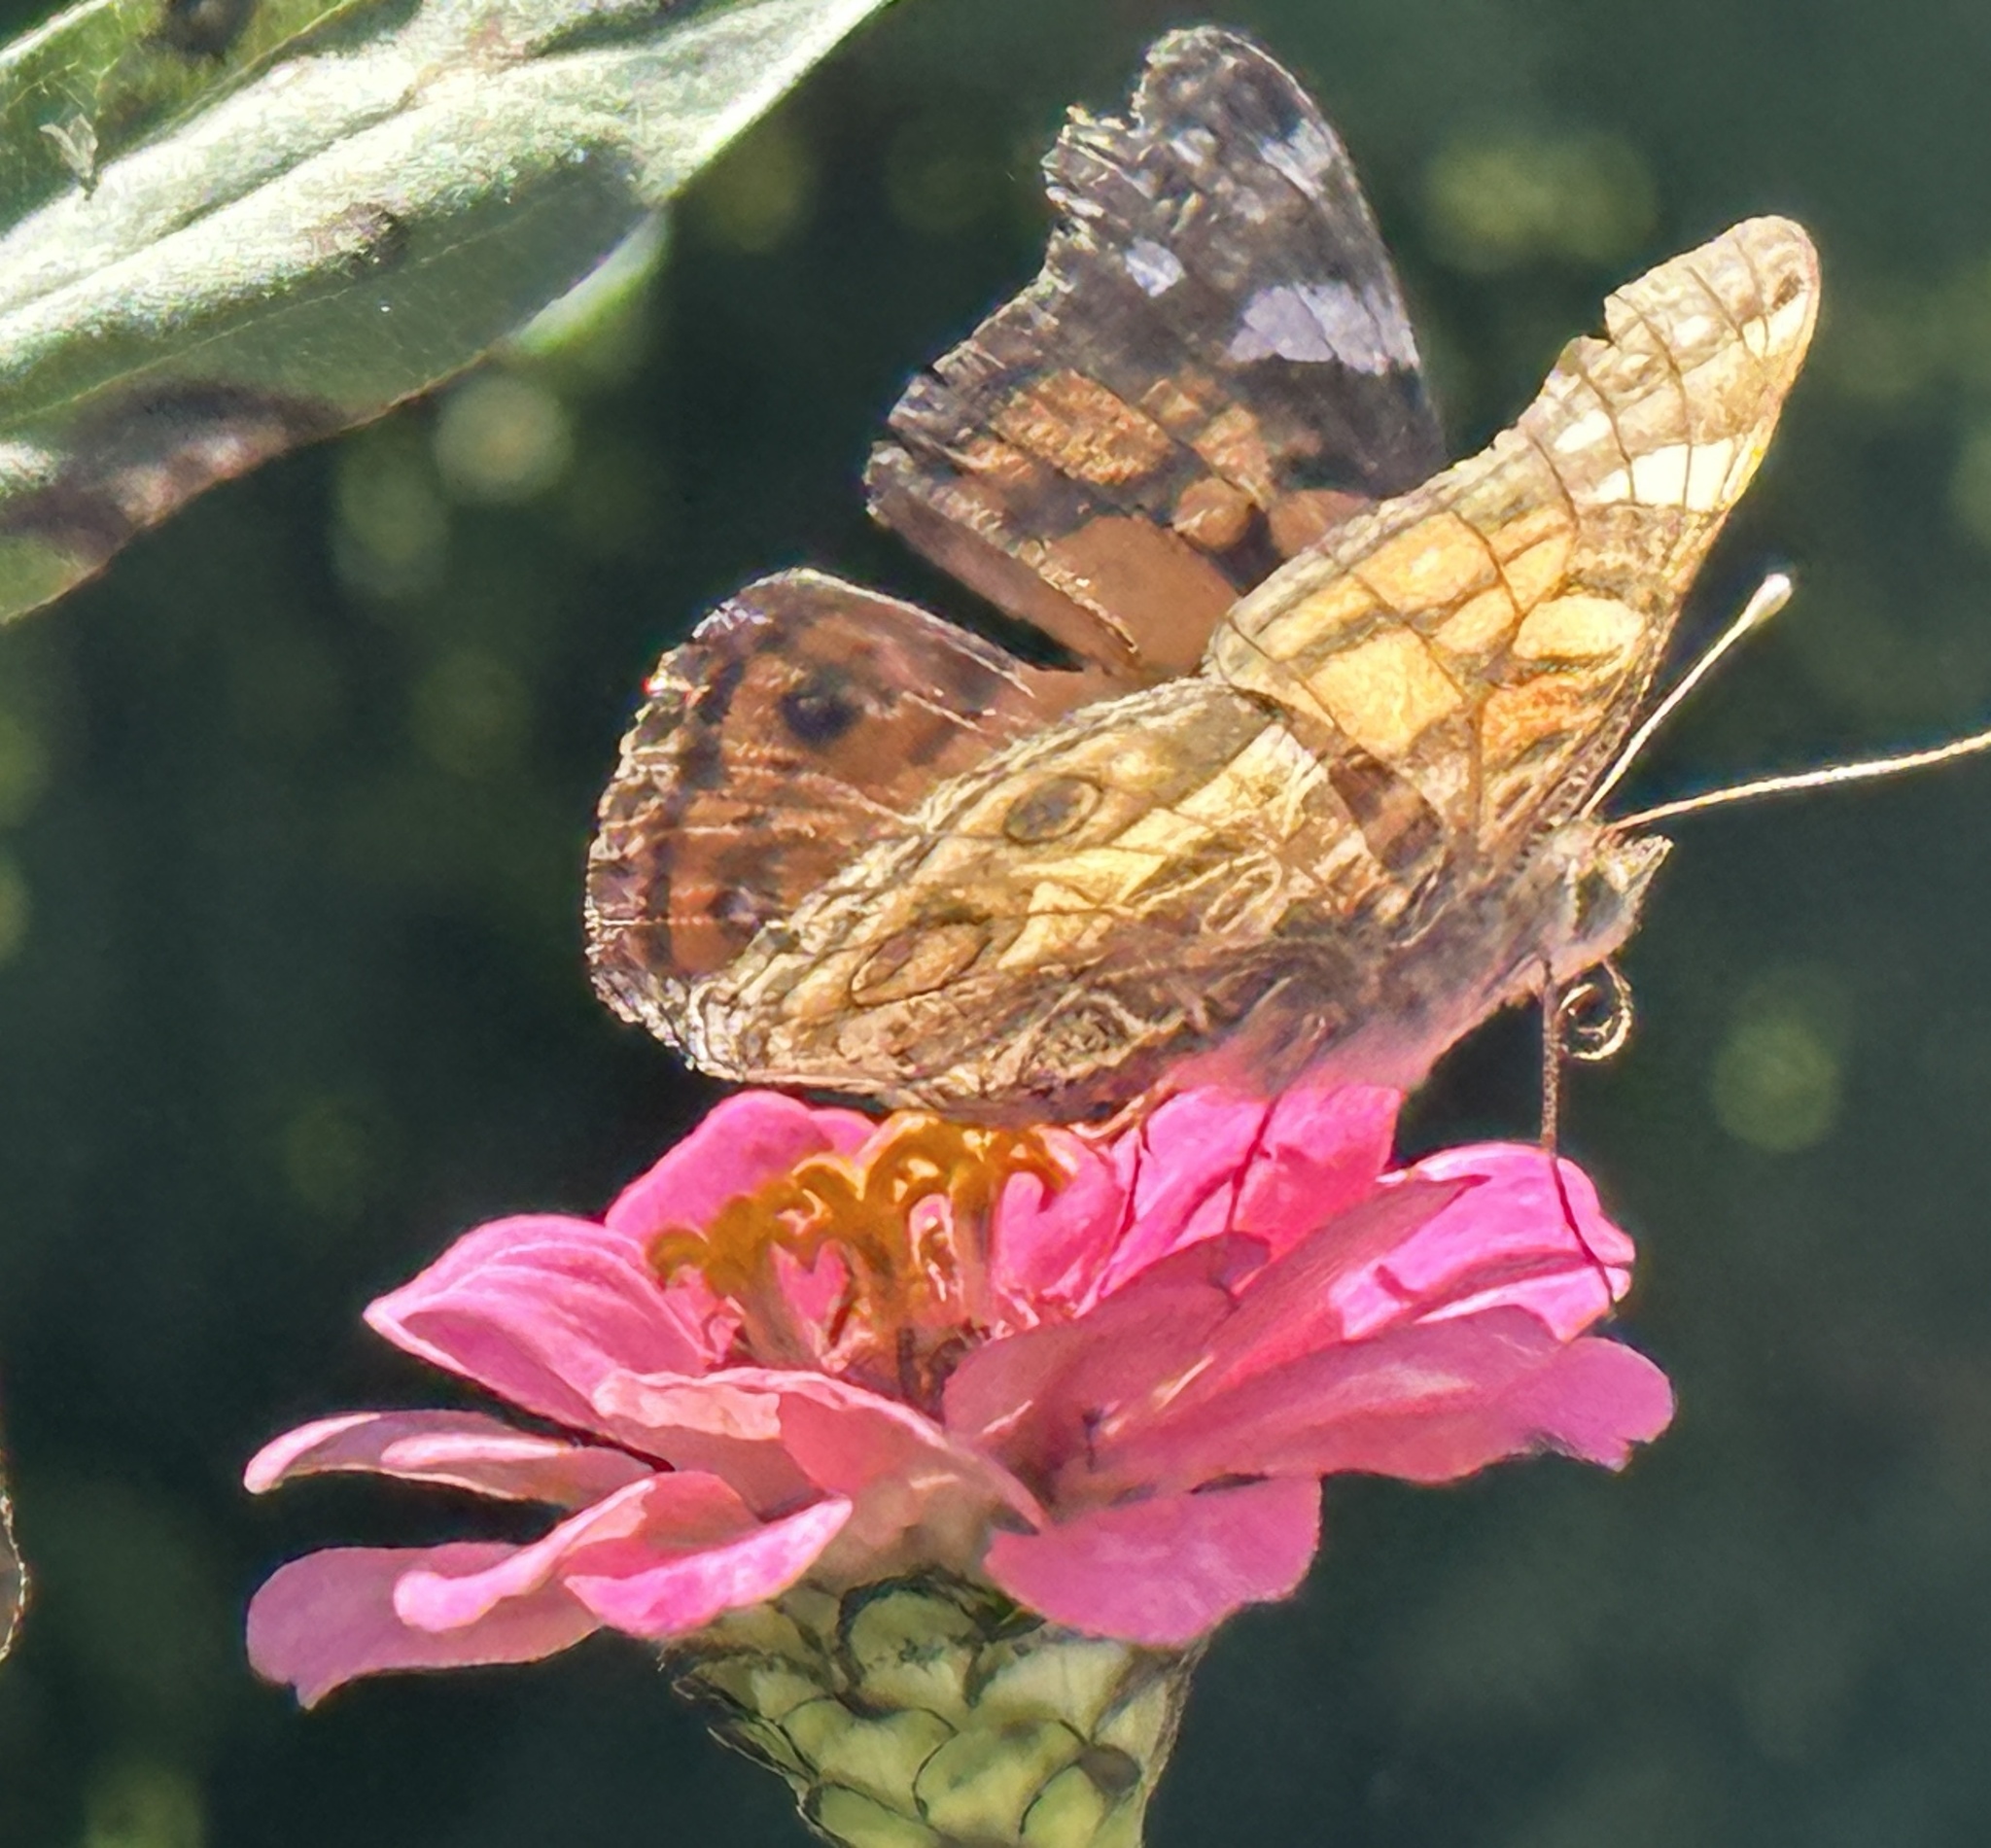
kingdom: Animalia
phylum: Arthropoda
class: Insecta
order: Lepidoptera
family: Nymphalidae
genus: Vanessa
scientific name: Vanessa virginiensis
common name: American lady
